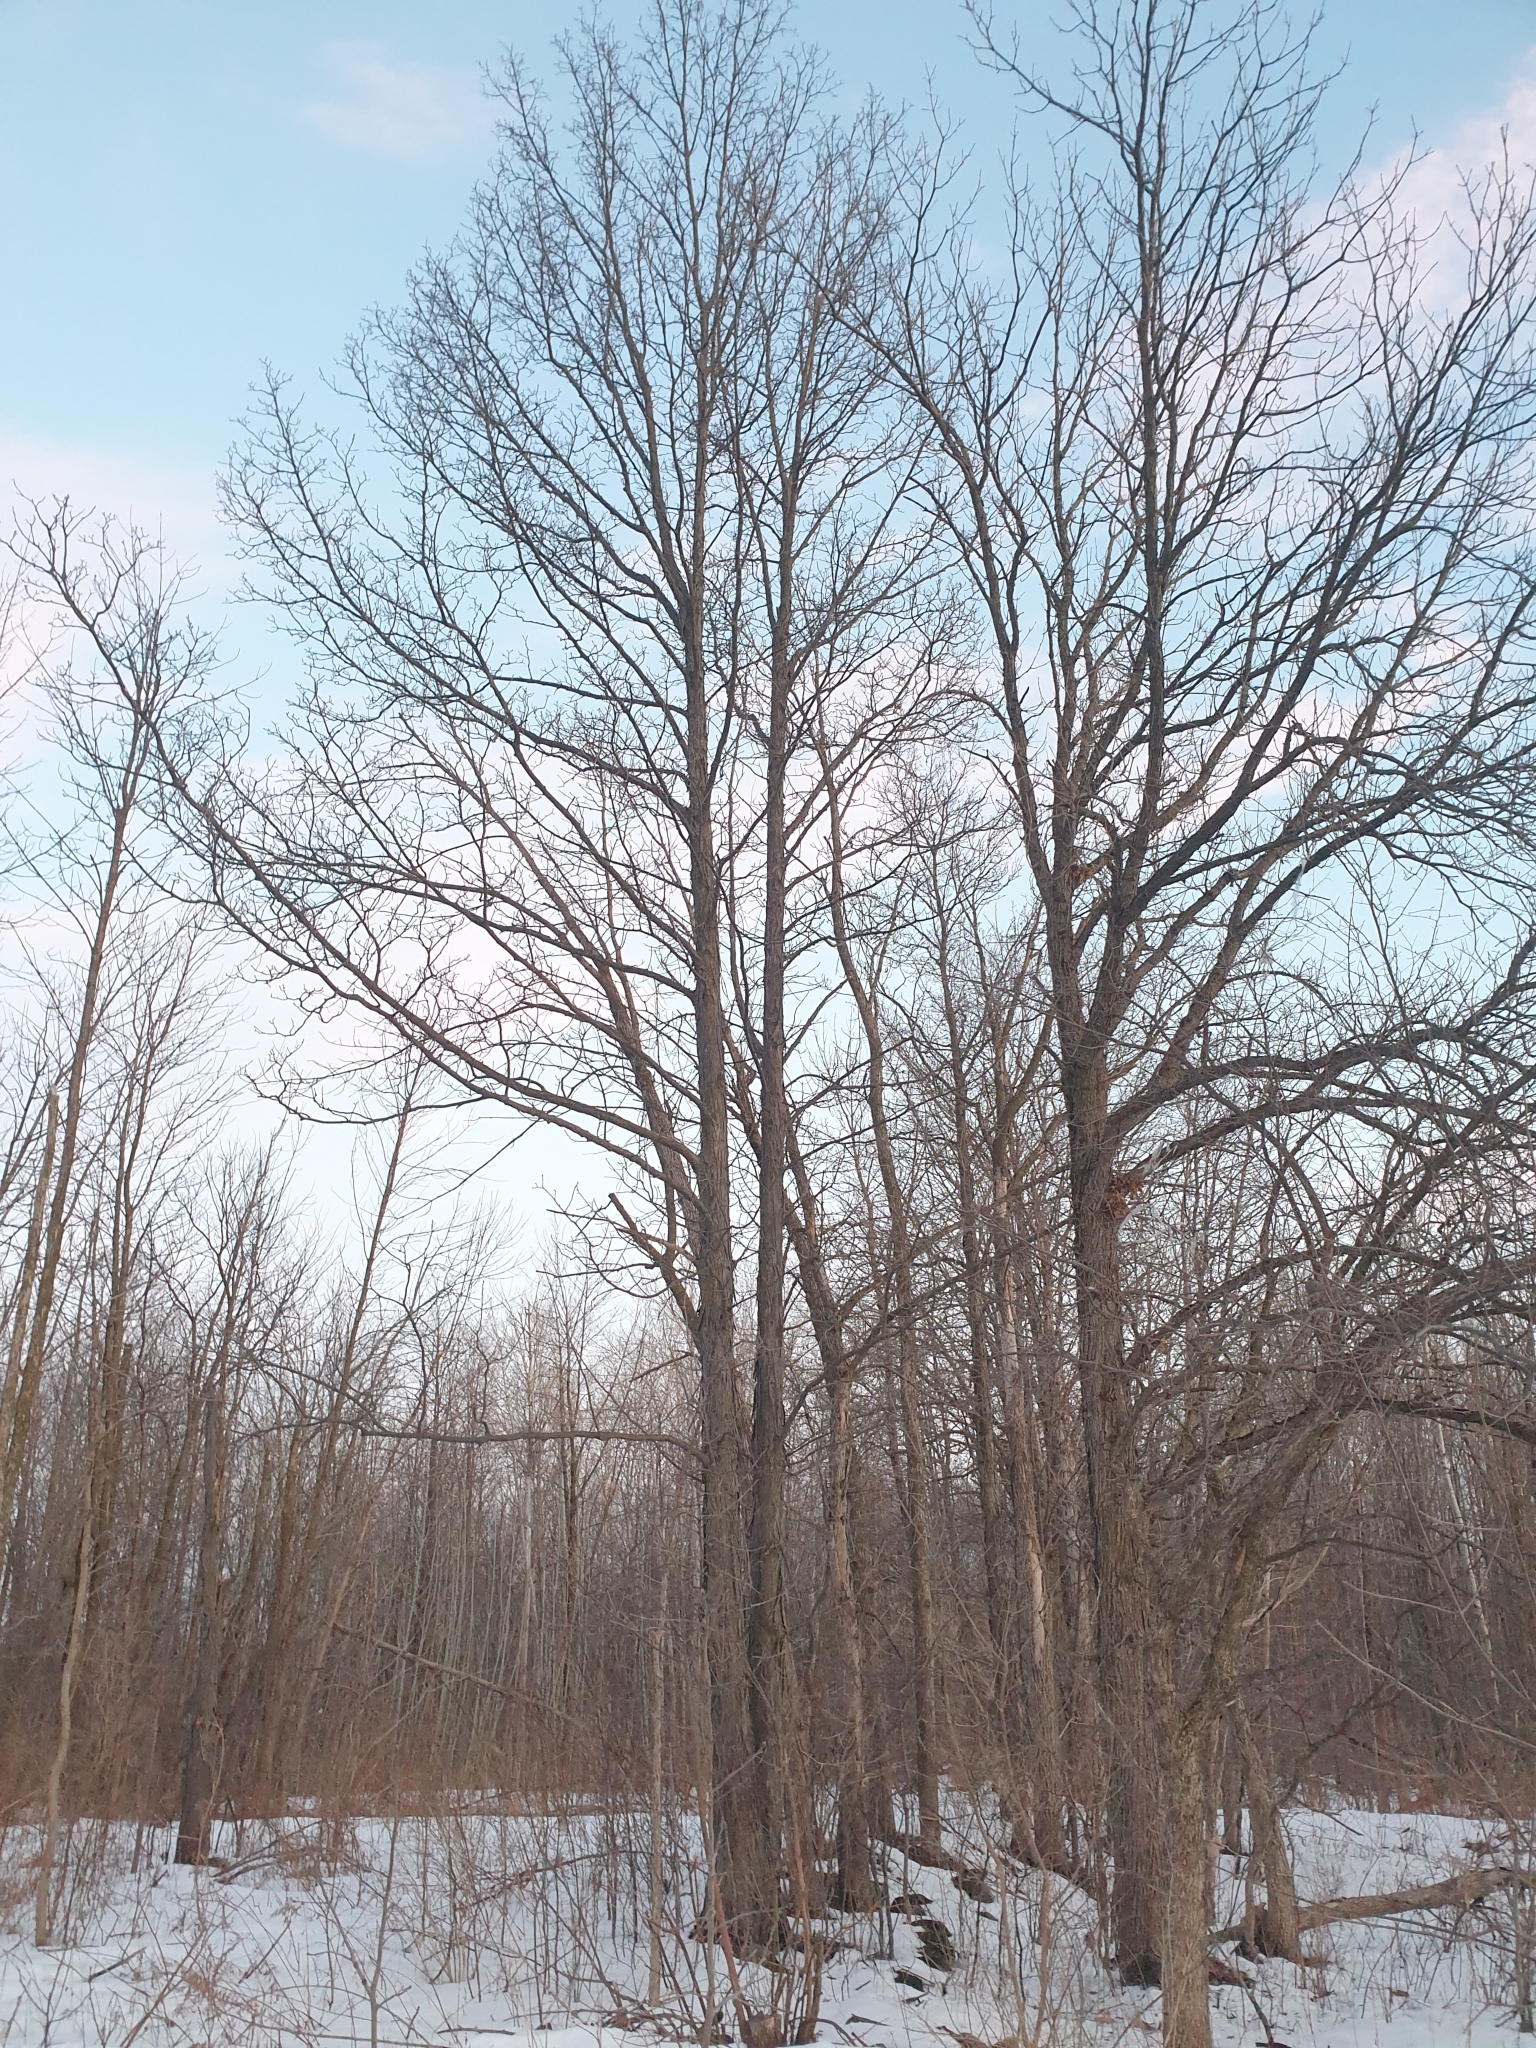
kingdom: Plantae
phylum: Tracheophyta
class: Magnoliopsida
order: Fagales
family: Juglandaceae
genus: Carya
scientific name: Carya ovata
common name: Shagbark hickory
